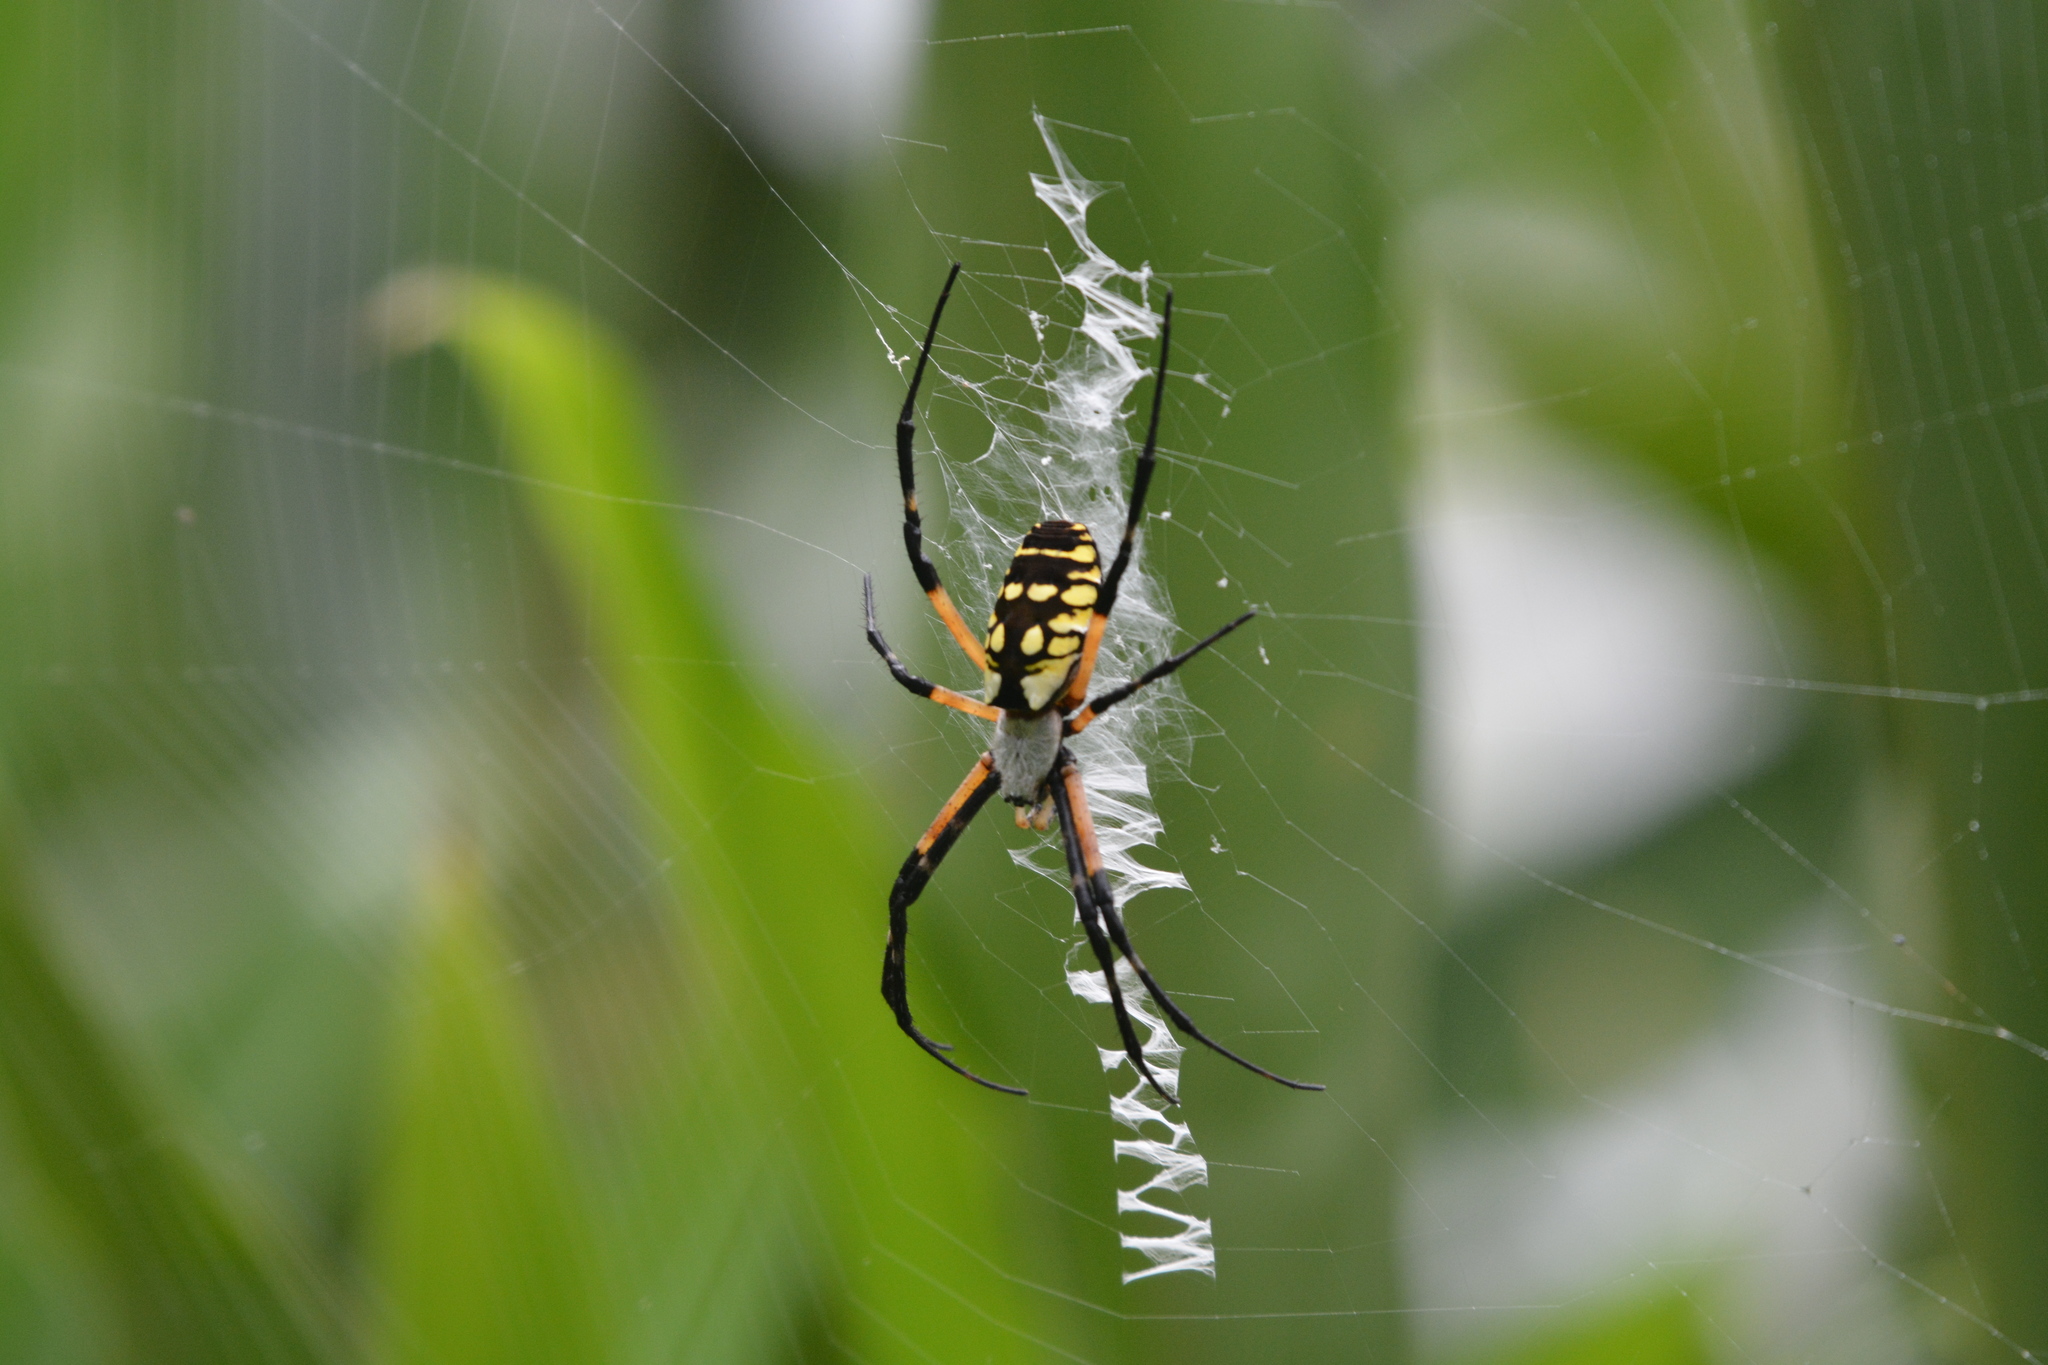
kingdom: Animalia
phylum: Arthropoda
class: Arachnida
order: Araneae
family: Araneidae
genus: Argiope
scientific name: Argiope aurantia
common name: Orb weavers
